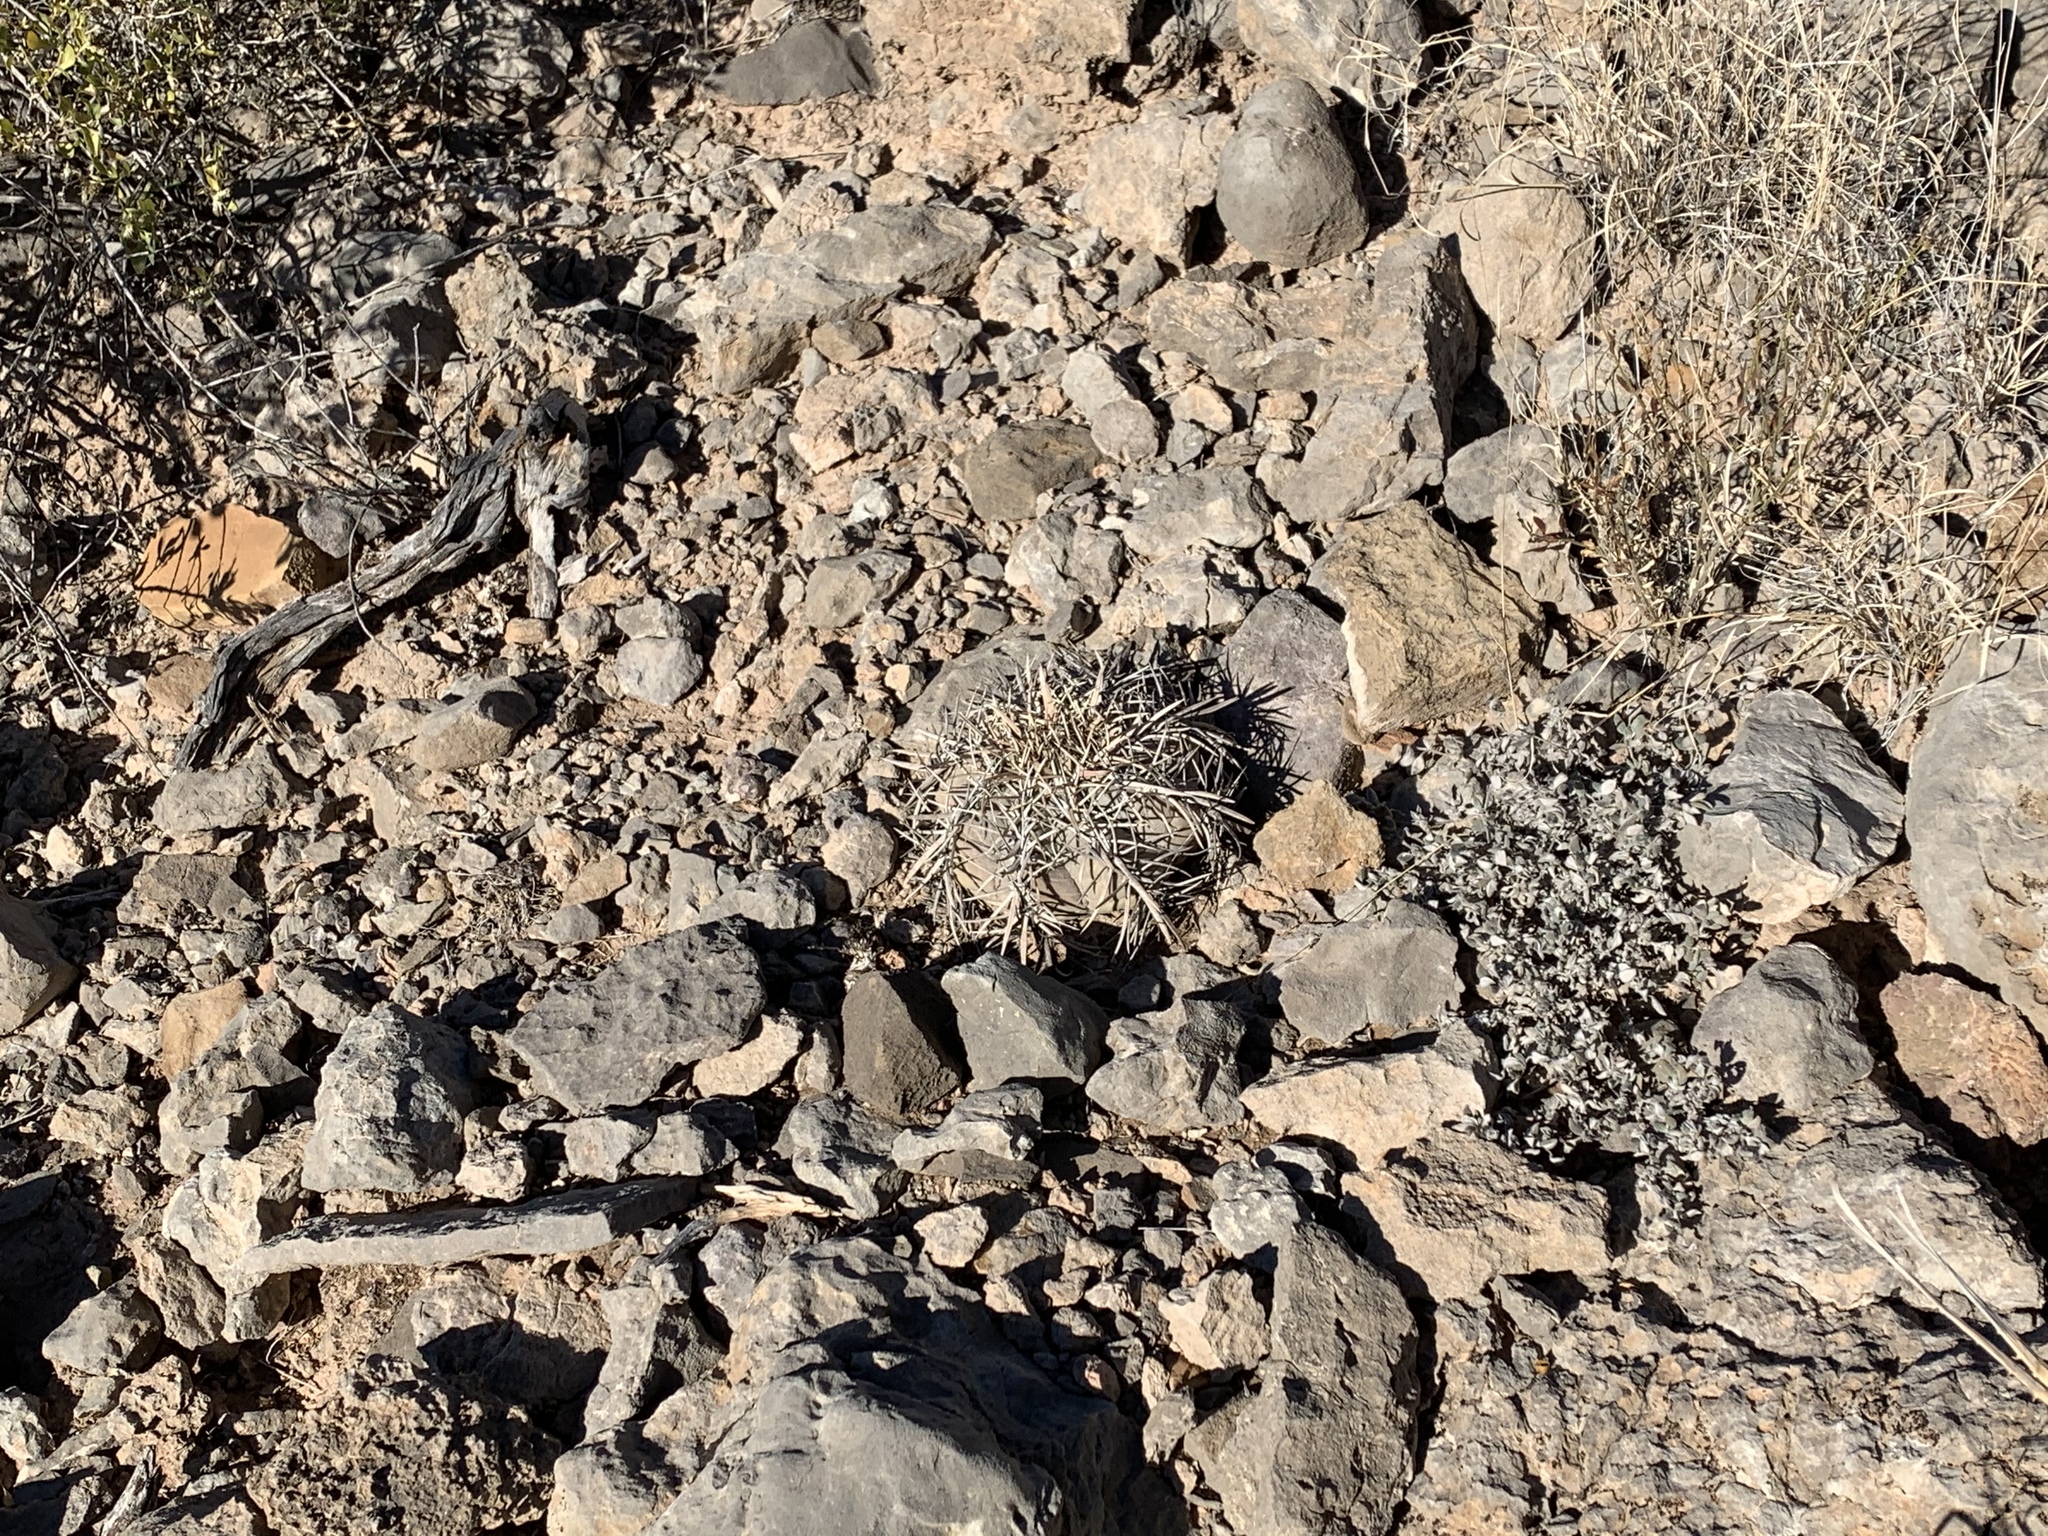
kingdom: Plantae
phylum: Tracheophyta
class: Magnoliopsida
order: Caryophyllales
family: Cactaceae
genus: Echinocactus
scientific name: Echinocactus horizonthalonius
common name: Devilshead
